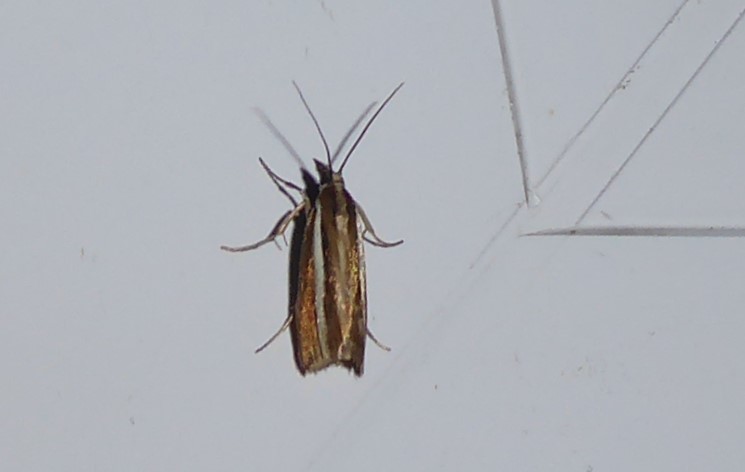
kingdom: Animalia
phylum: Arthropoda
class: Insecta
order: Lepidoptera
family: Crambidae
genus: Orocrambus
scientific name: Orocrambus aethonellus
